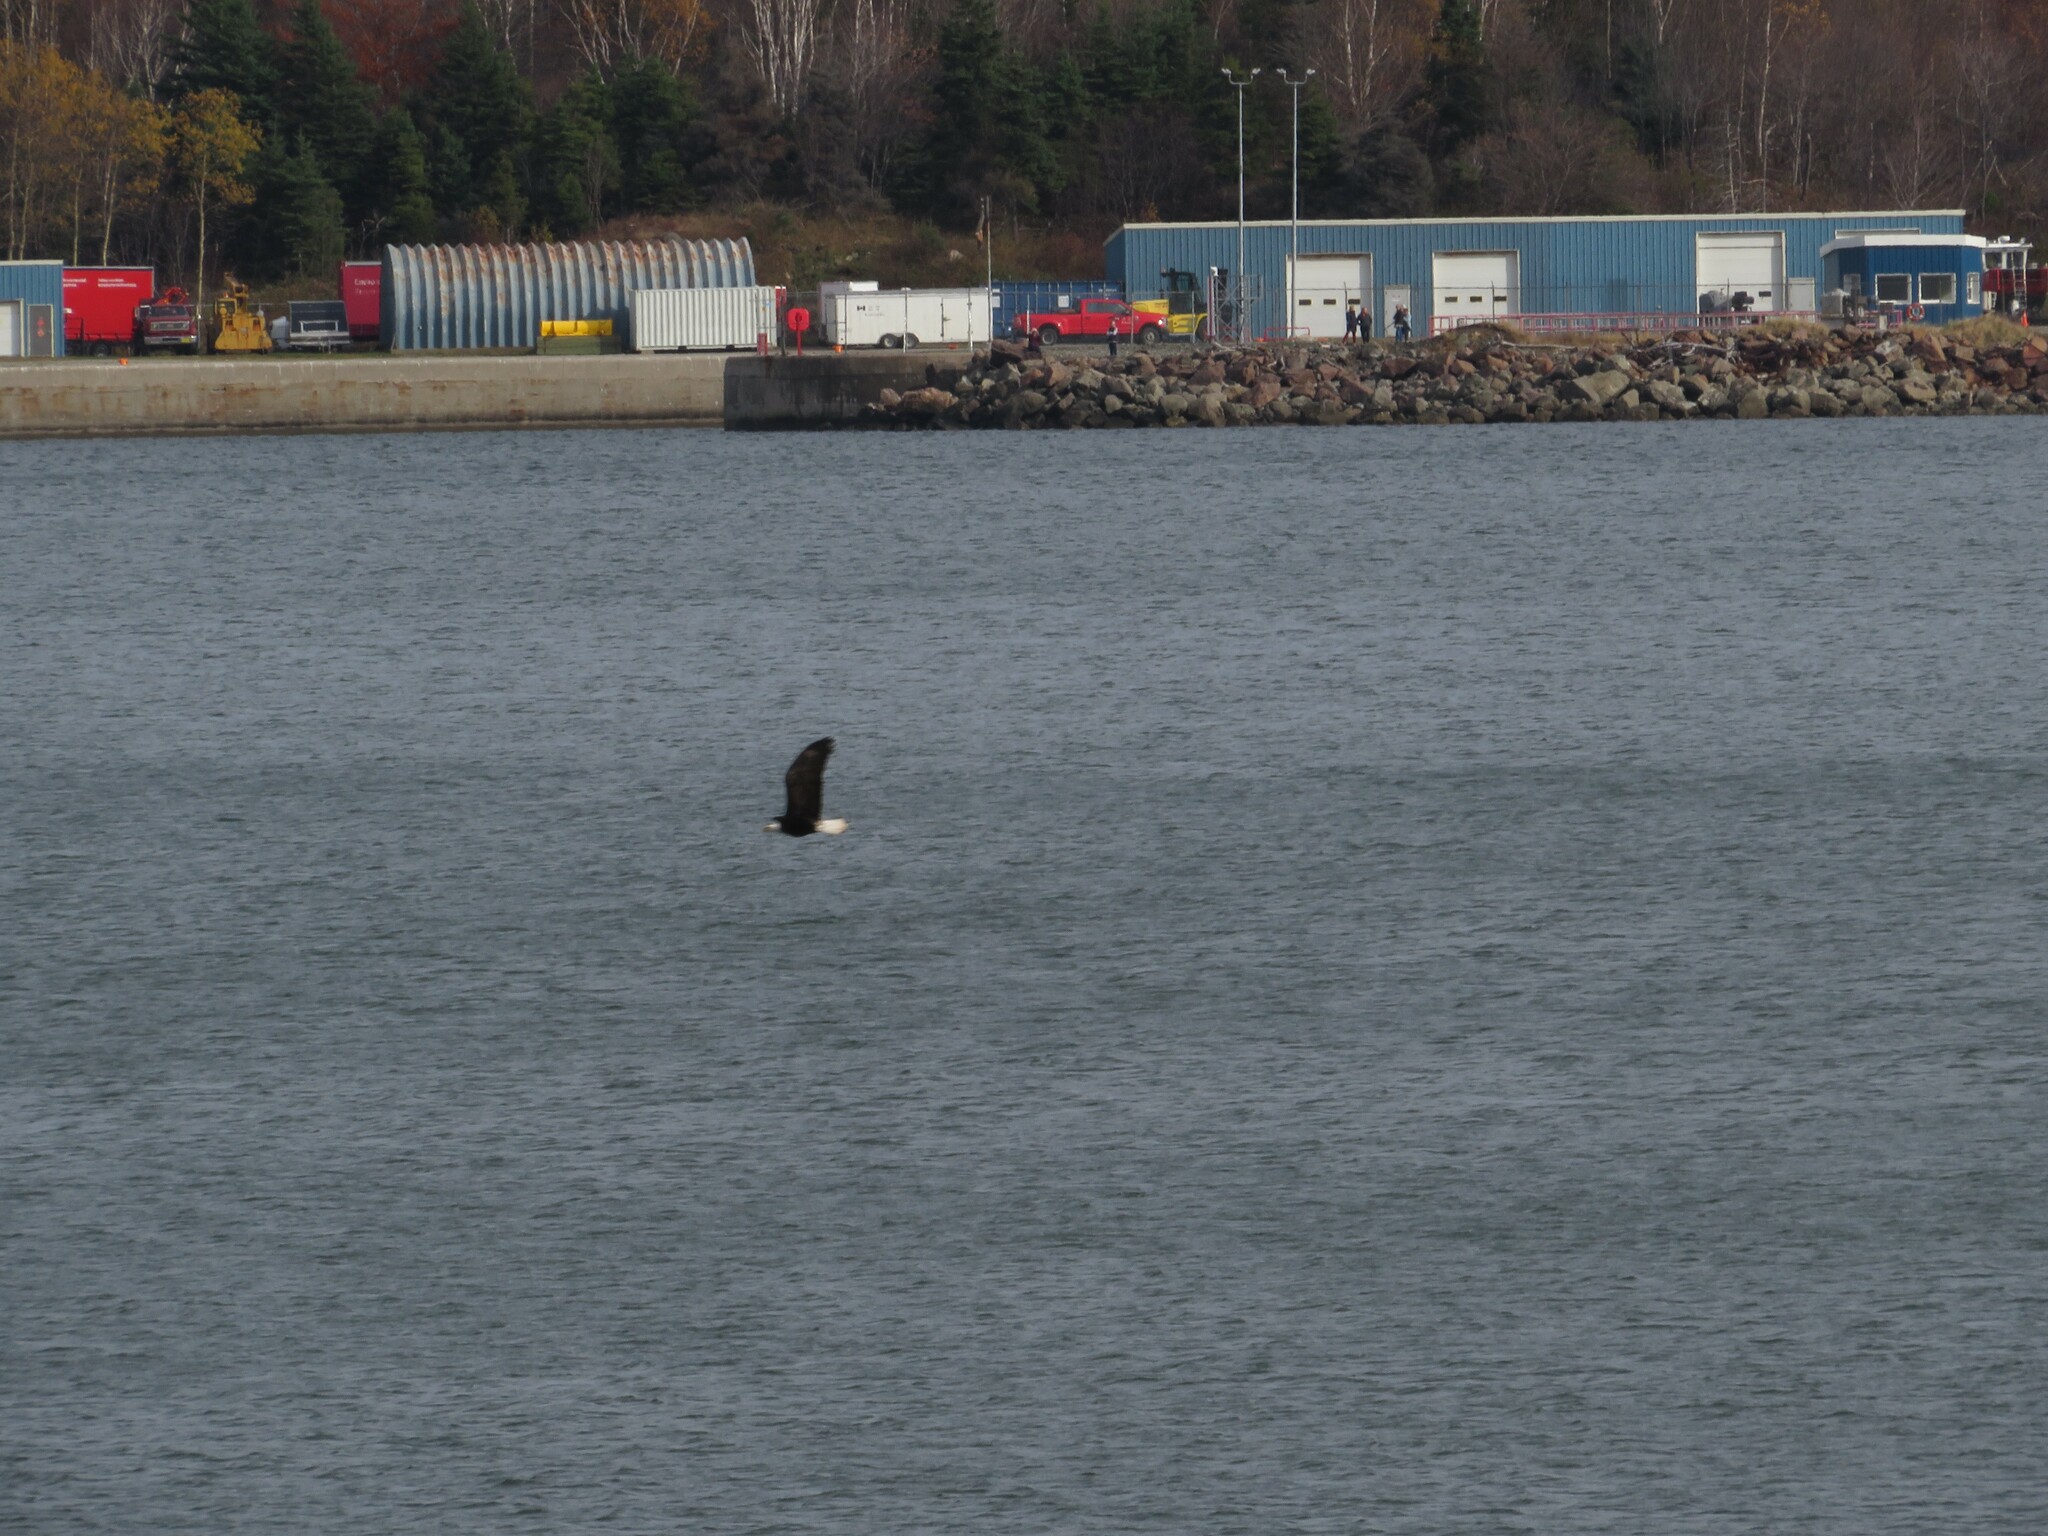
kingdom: Animalia
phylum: Chordata
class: Aves
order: Accipitriformes
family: Accipitridae
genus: Haliaeetus
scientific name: Haliaeetus leucocephalus
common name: Bald eagle
